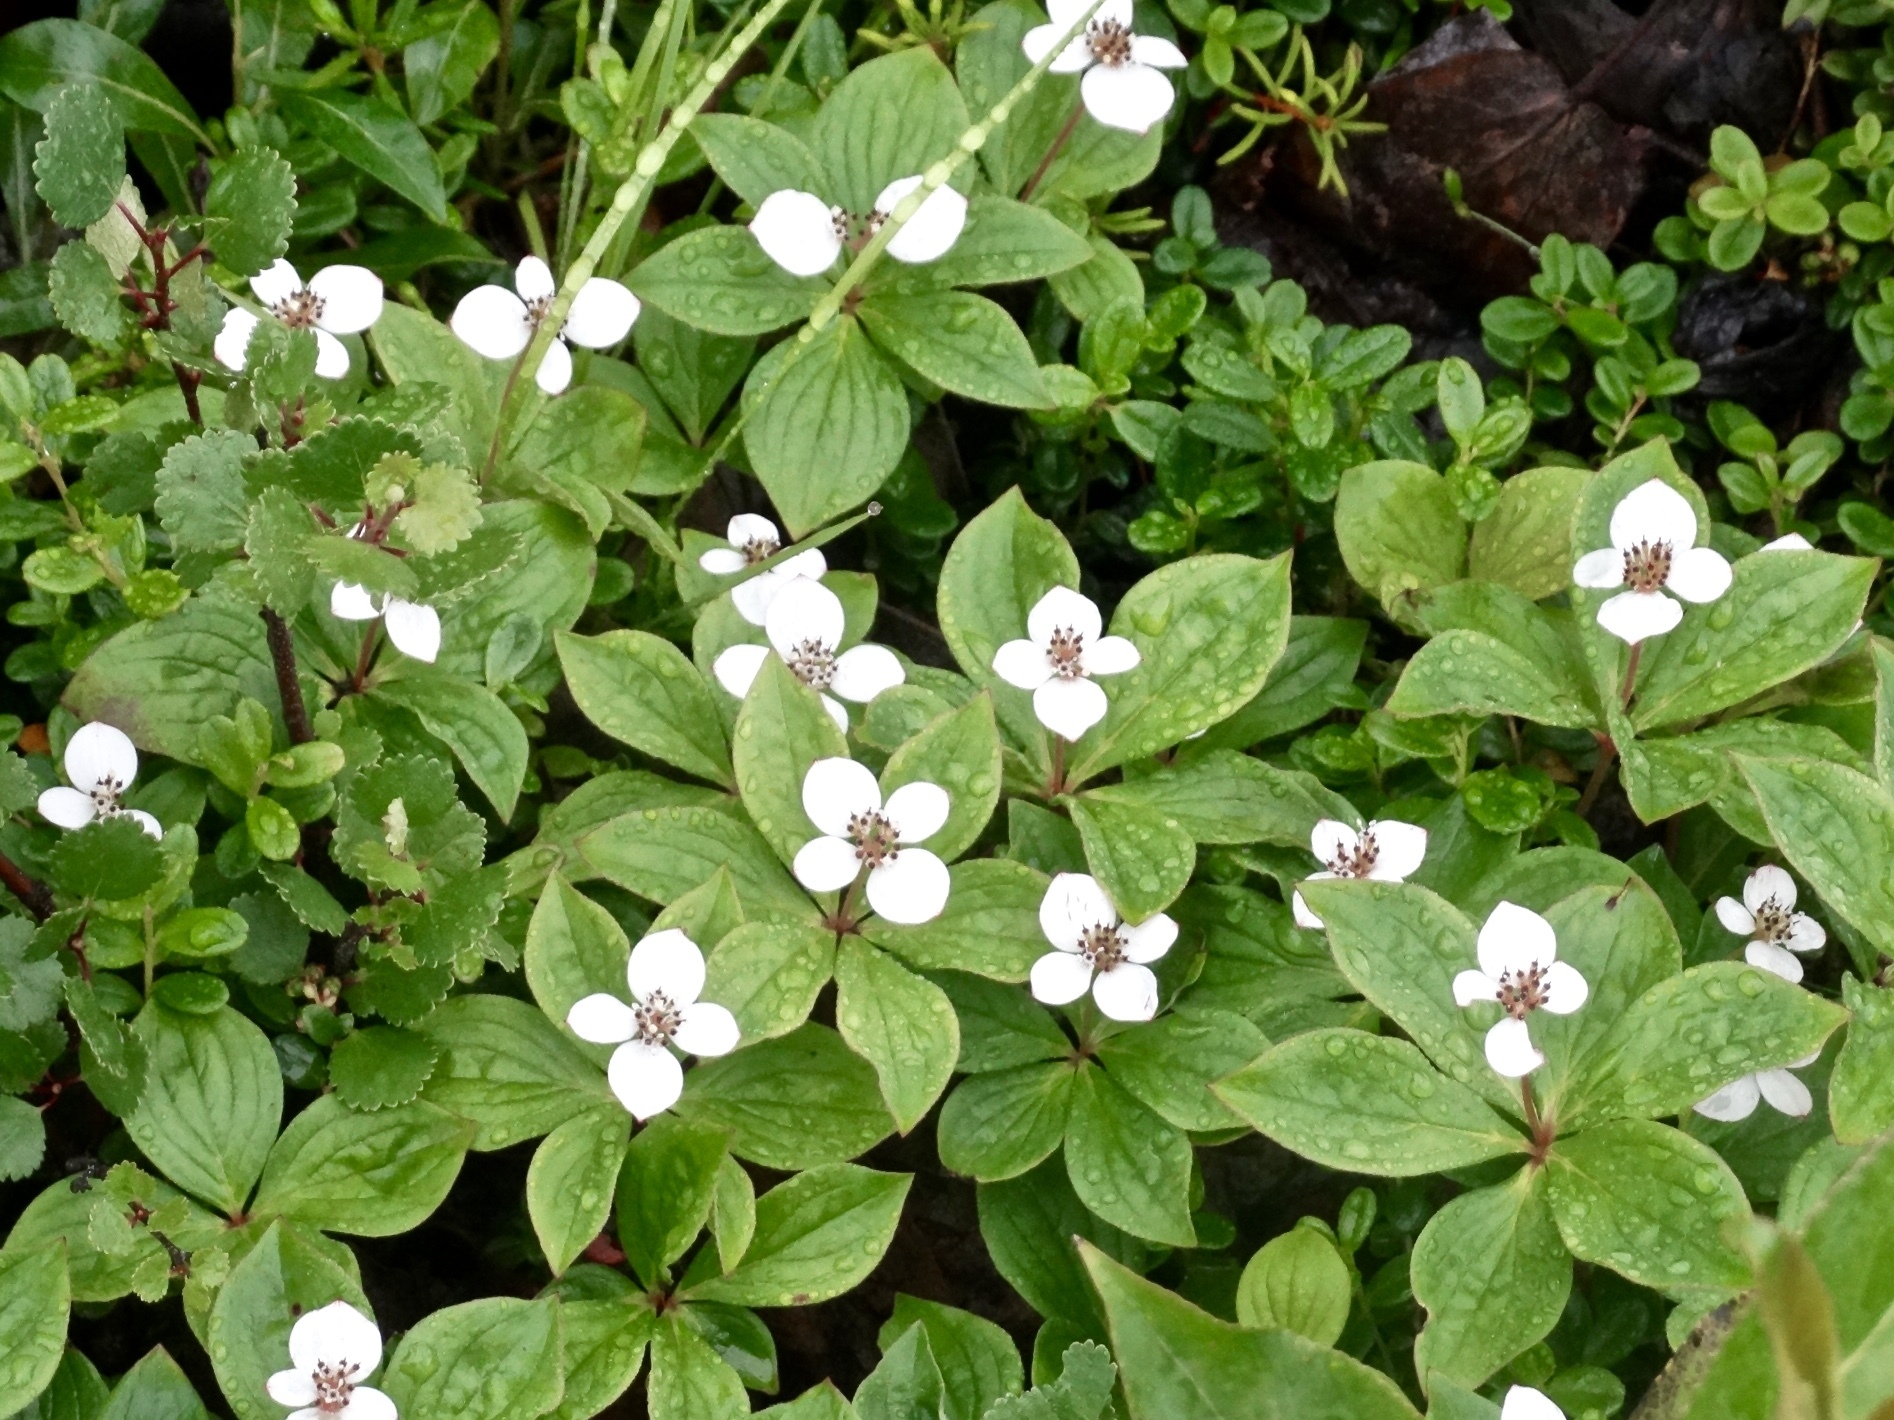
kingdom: Plantae
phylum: Tracheophyta
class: Magnoliopsida
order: Cornales
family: Cornaceae
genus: Cornus
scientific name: Cornus canadensis
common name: Creeping dogwood
